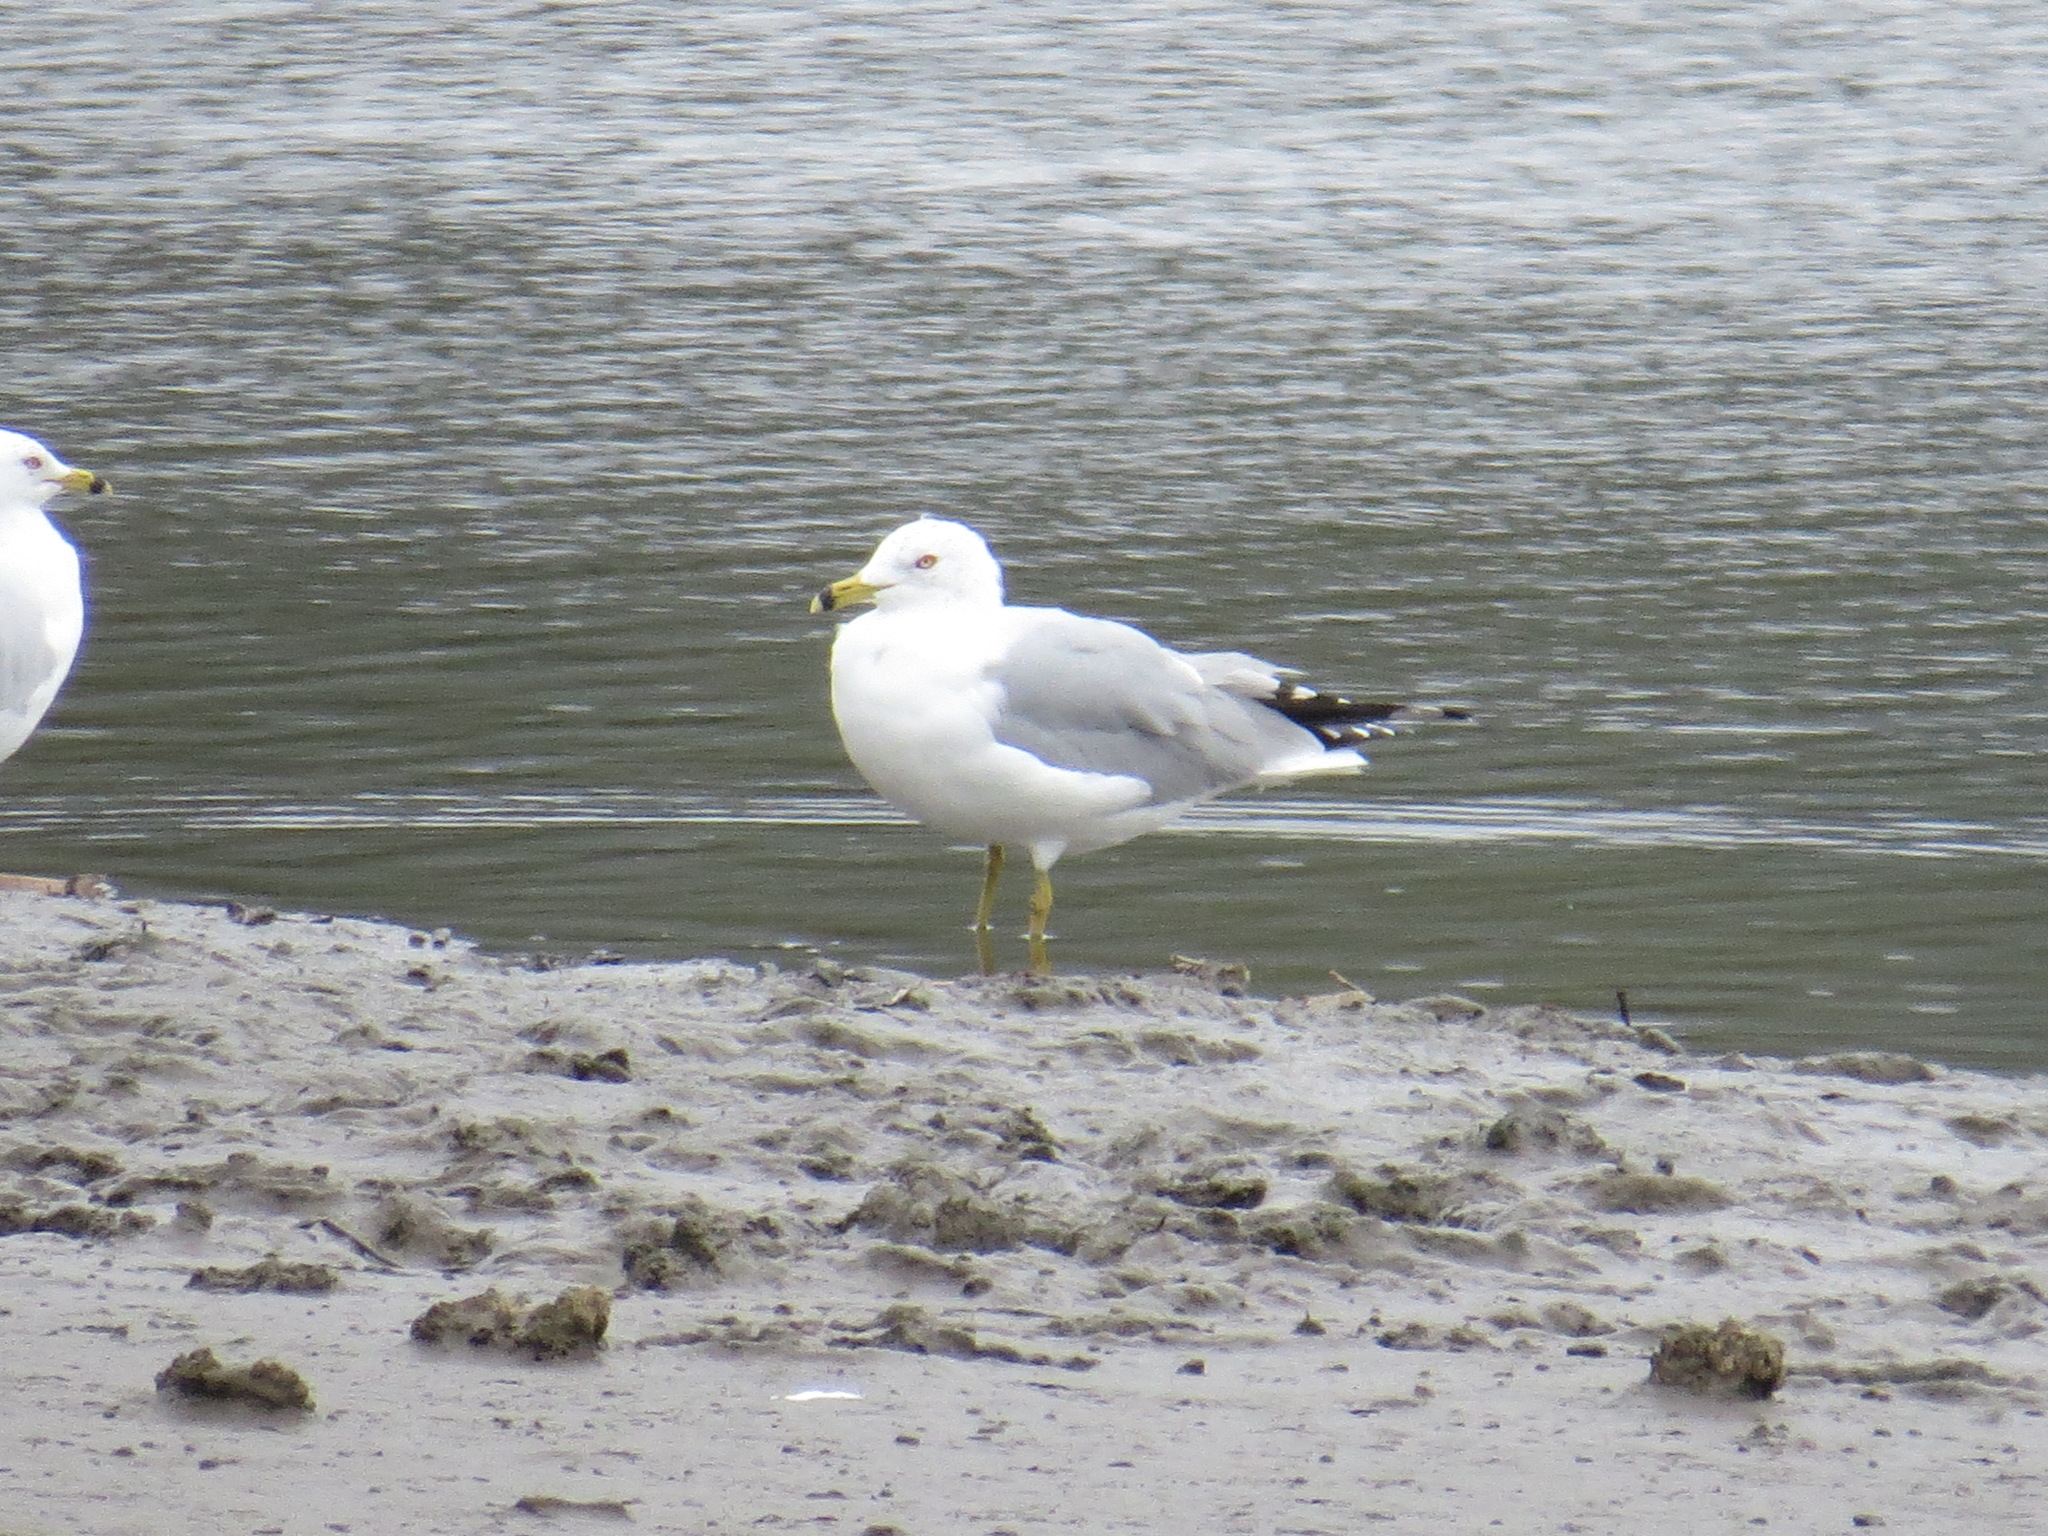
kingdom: Animalia
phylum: Chordata
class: Aves
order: Charadriiformes
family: Laridae
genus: Larus
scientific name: Larus delawarensis
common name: Ring-billed gull
